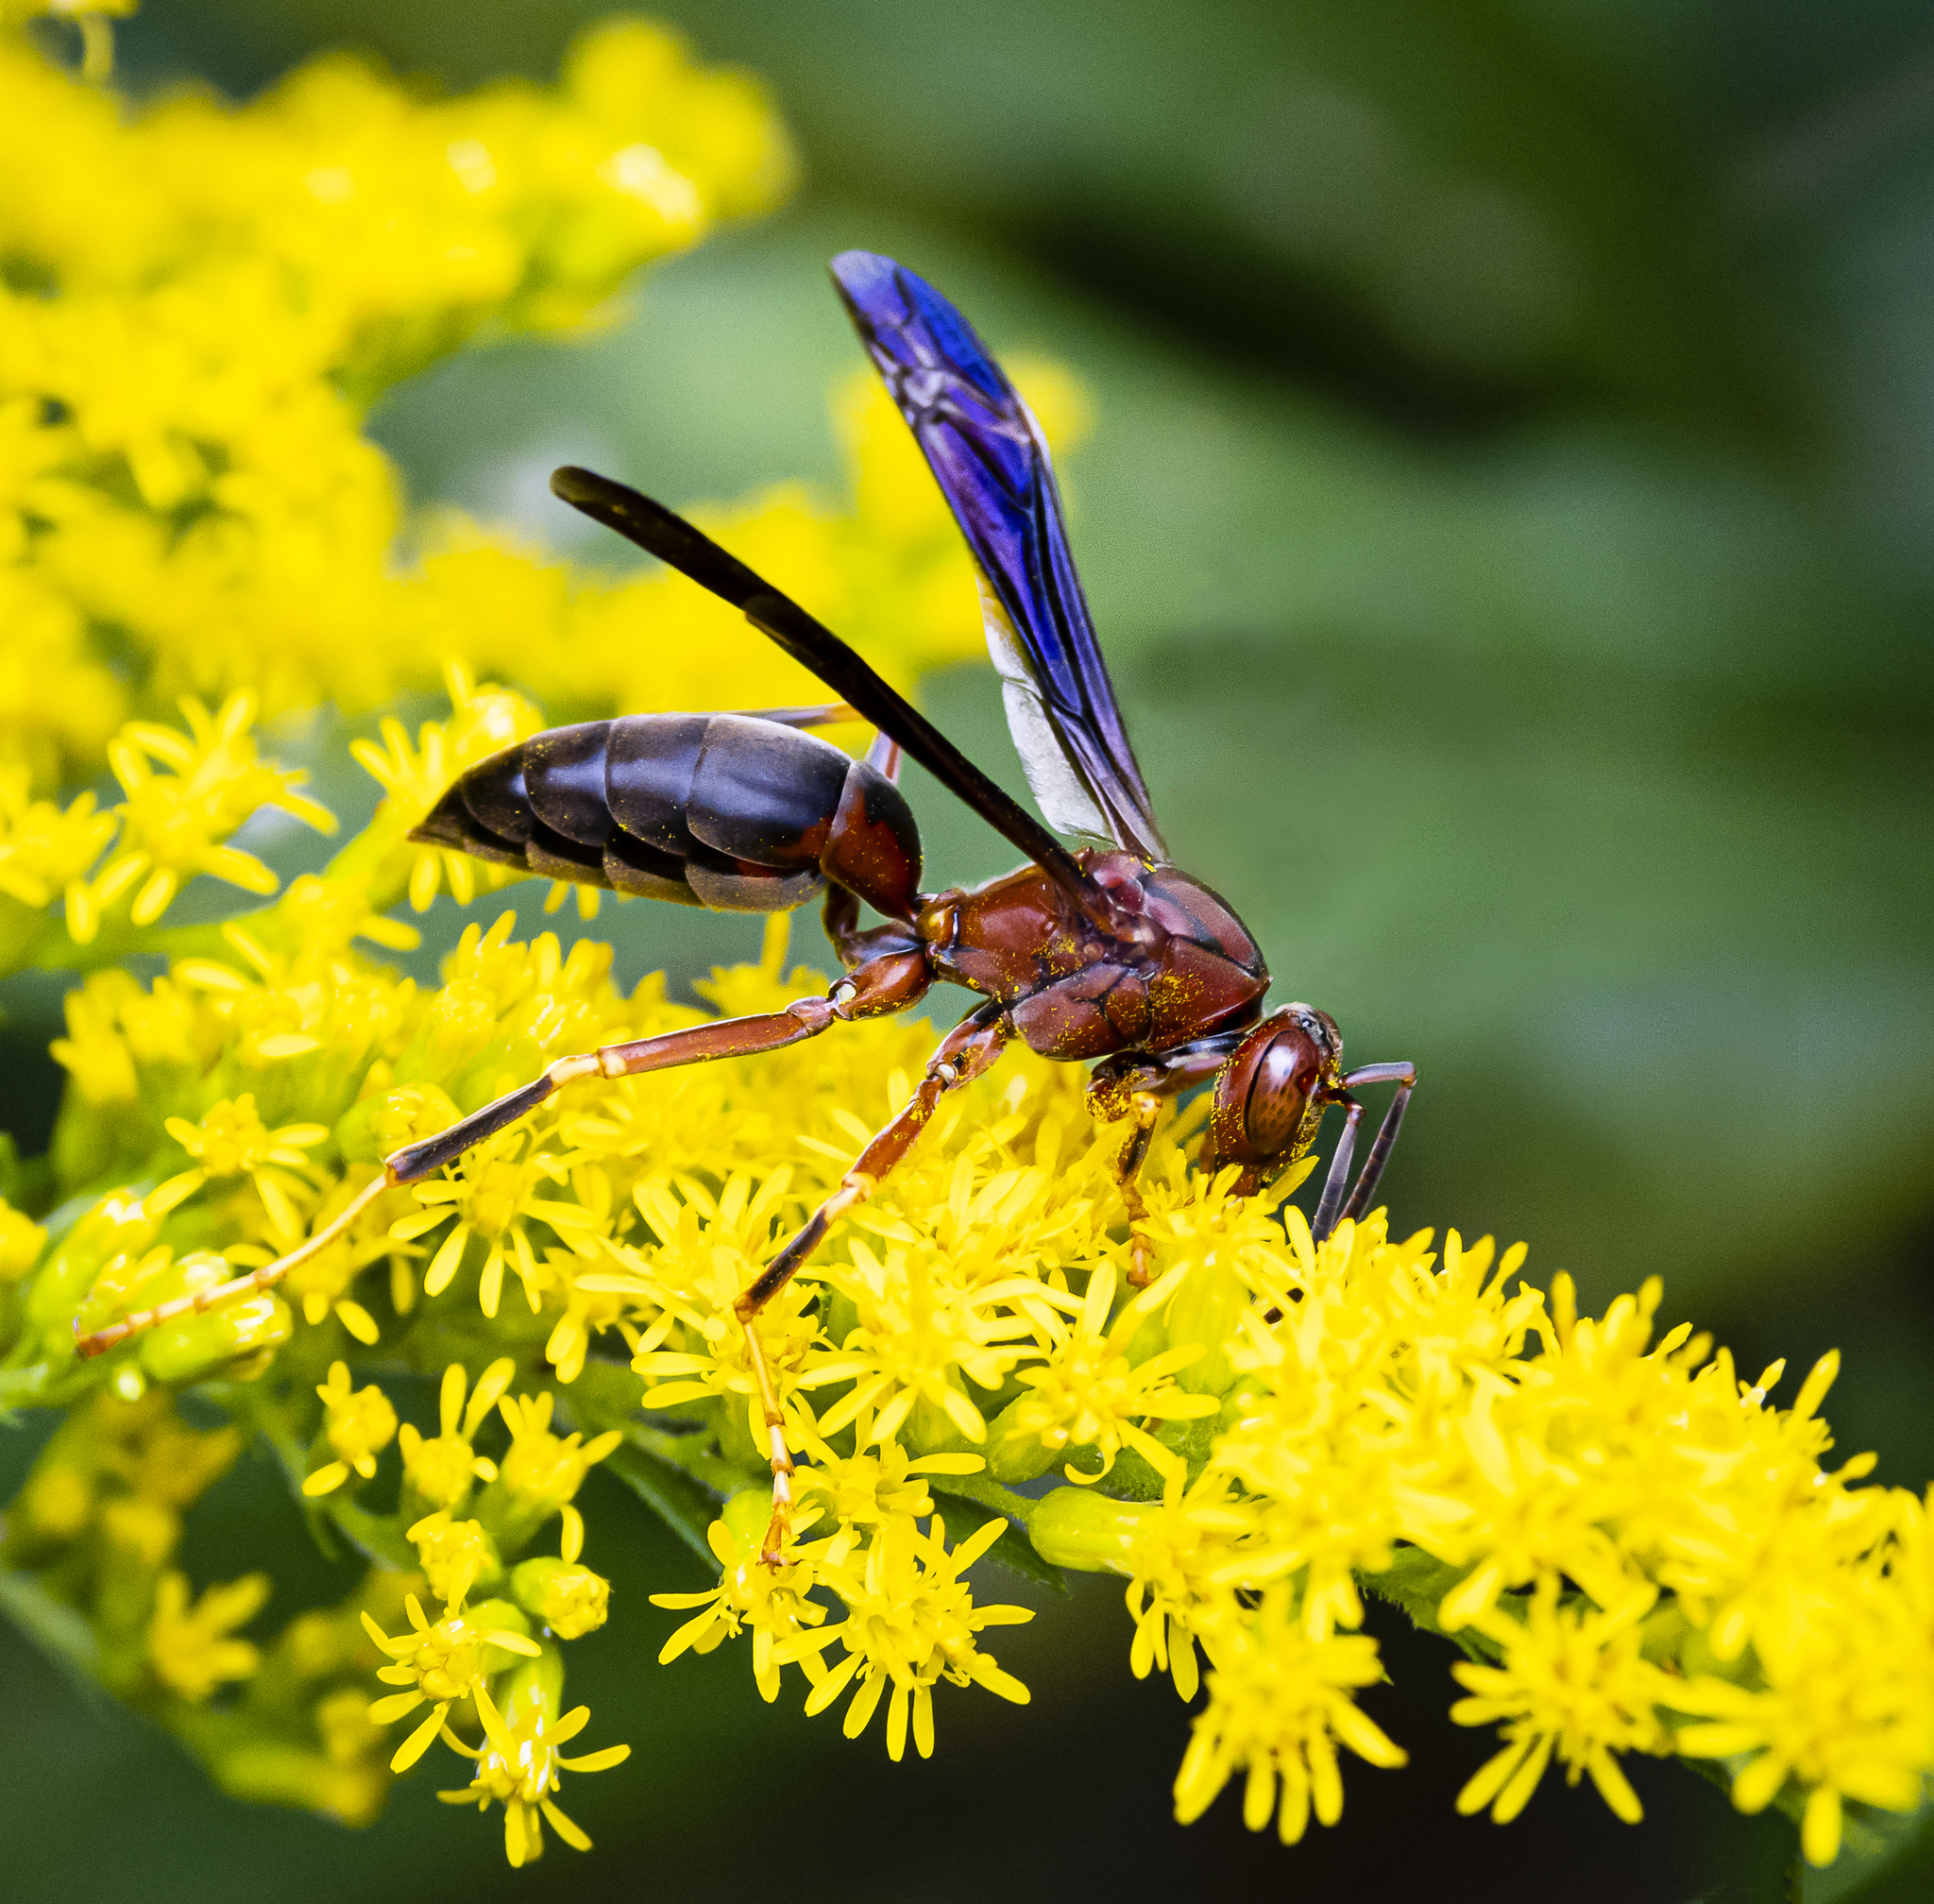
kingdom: Animalia
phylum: Arthropoda
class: Insecta
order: Hymenoptera
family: Eumenidae
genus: Polistes
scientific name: Polistes metricus
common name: Metric paper wasp
